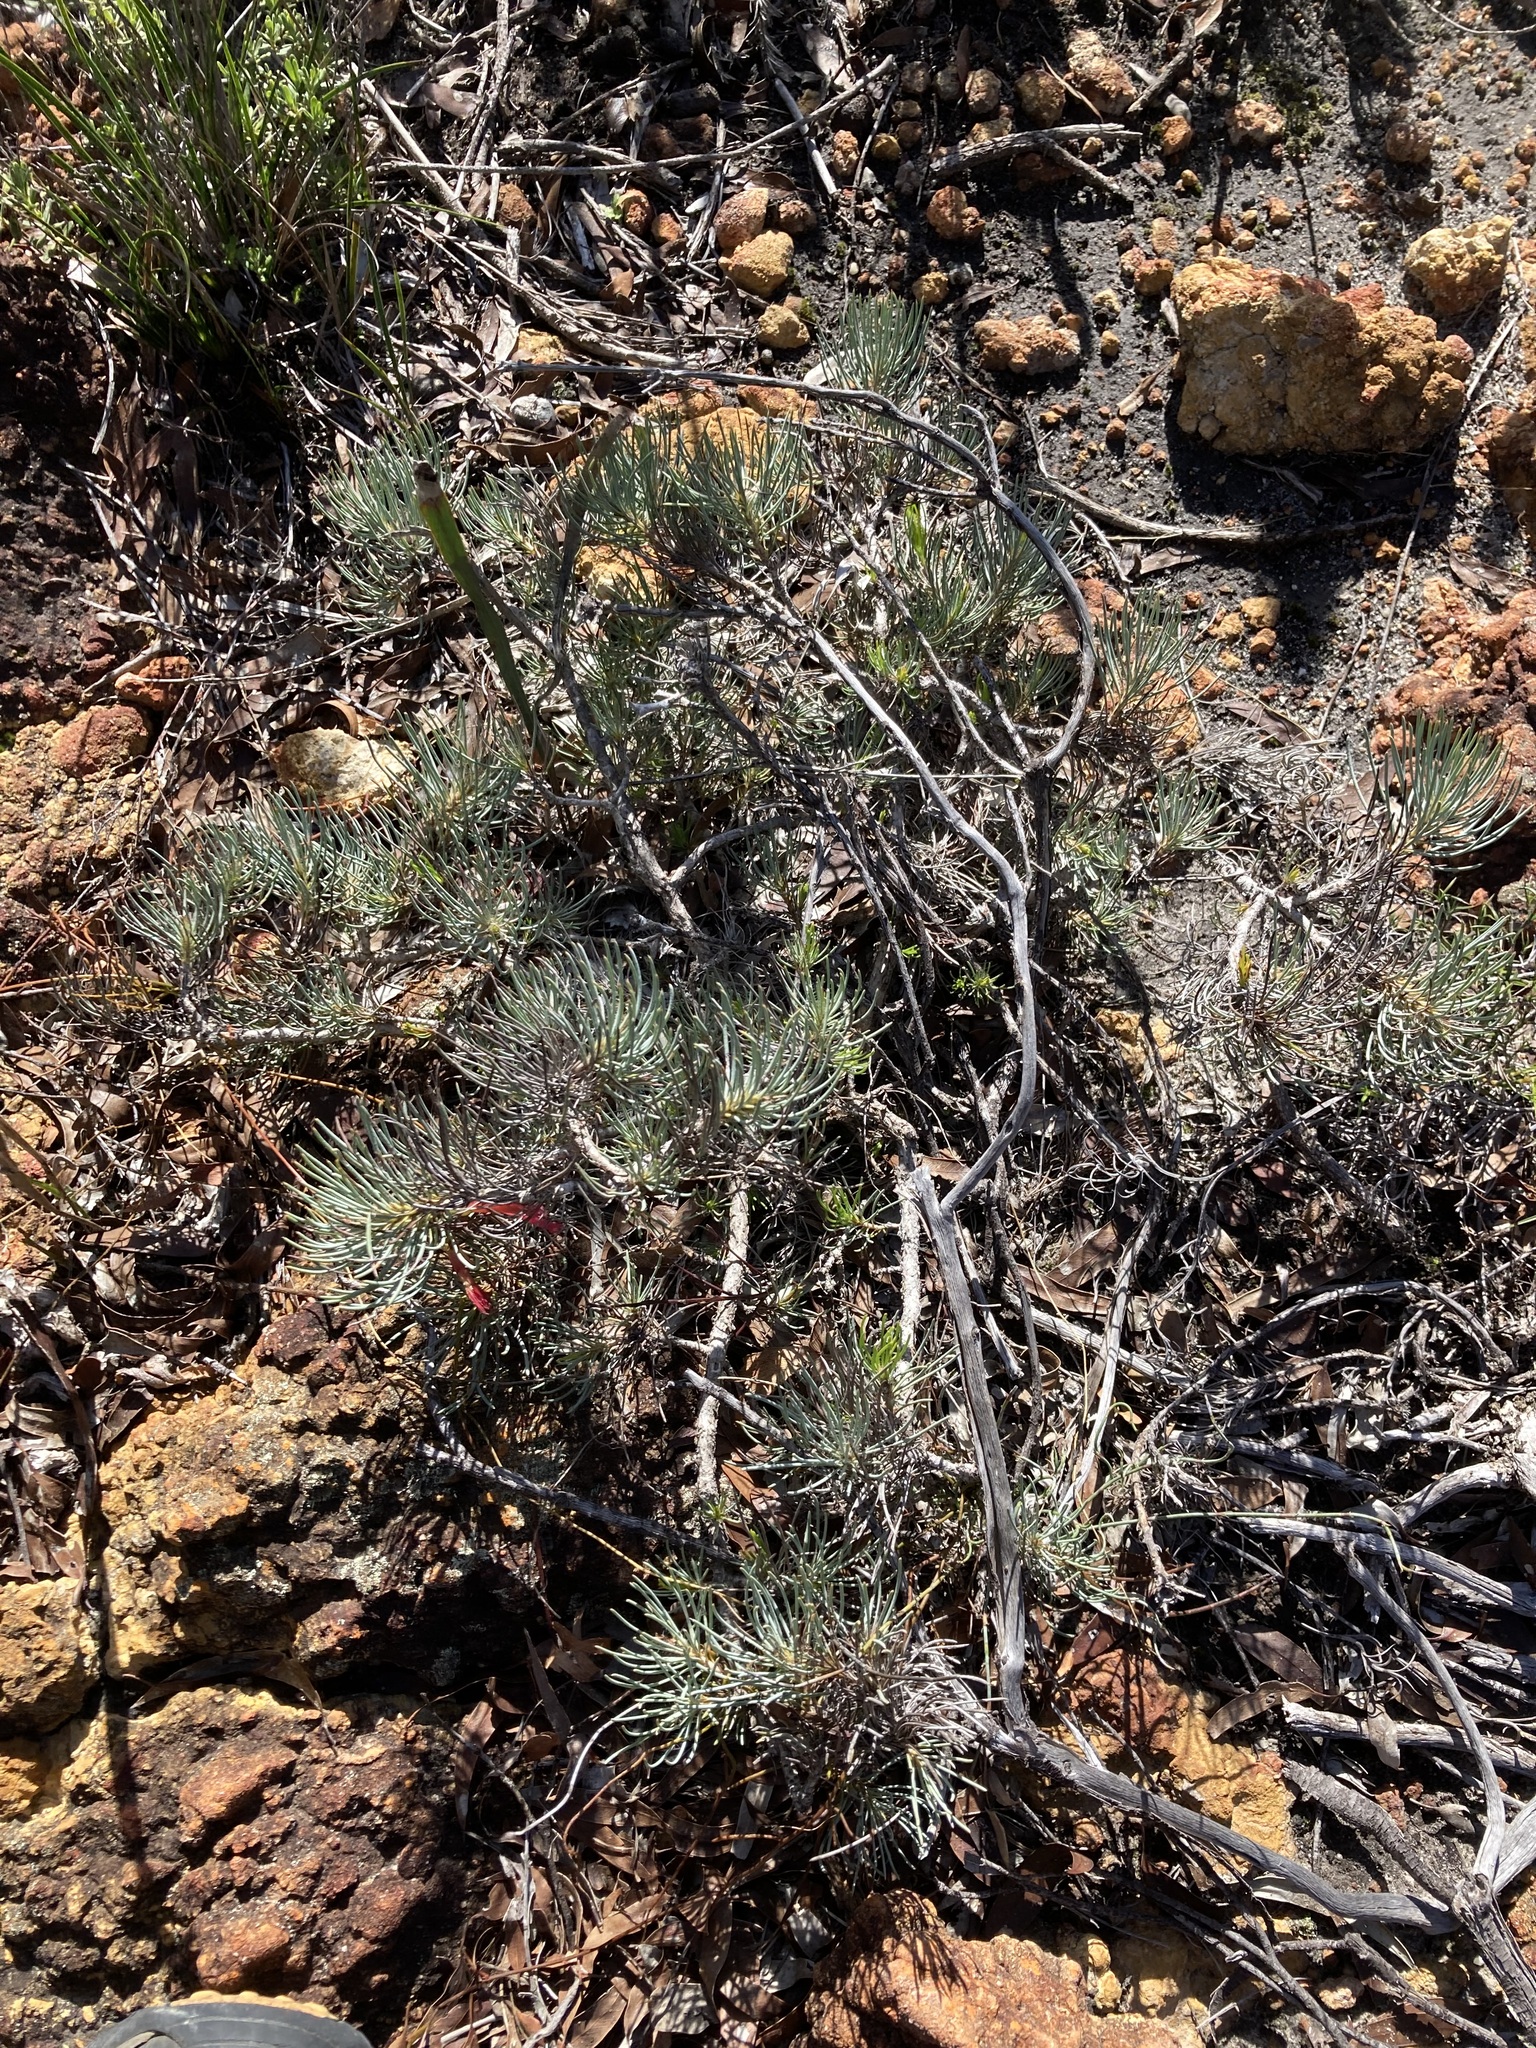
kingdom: Plantae
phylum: Tracheophyta
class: Magnoliopsida
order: Myrtales
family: Myrtaceae
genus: Melaleuca
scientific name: Melaleuca torulosa
